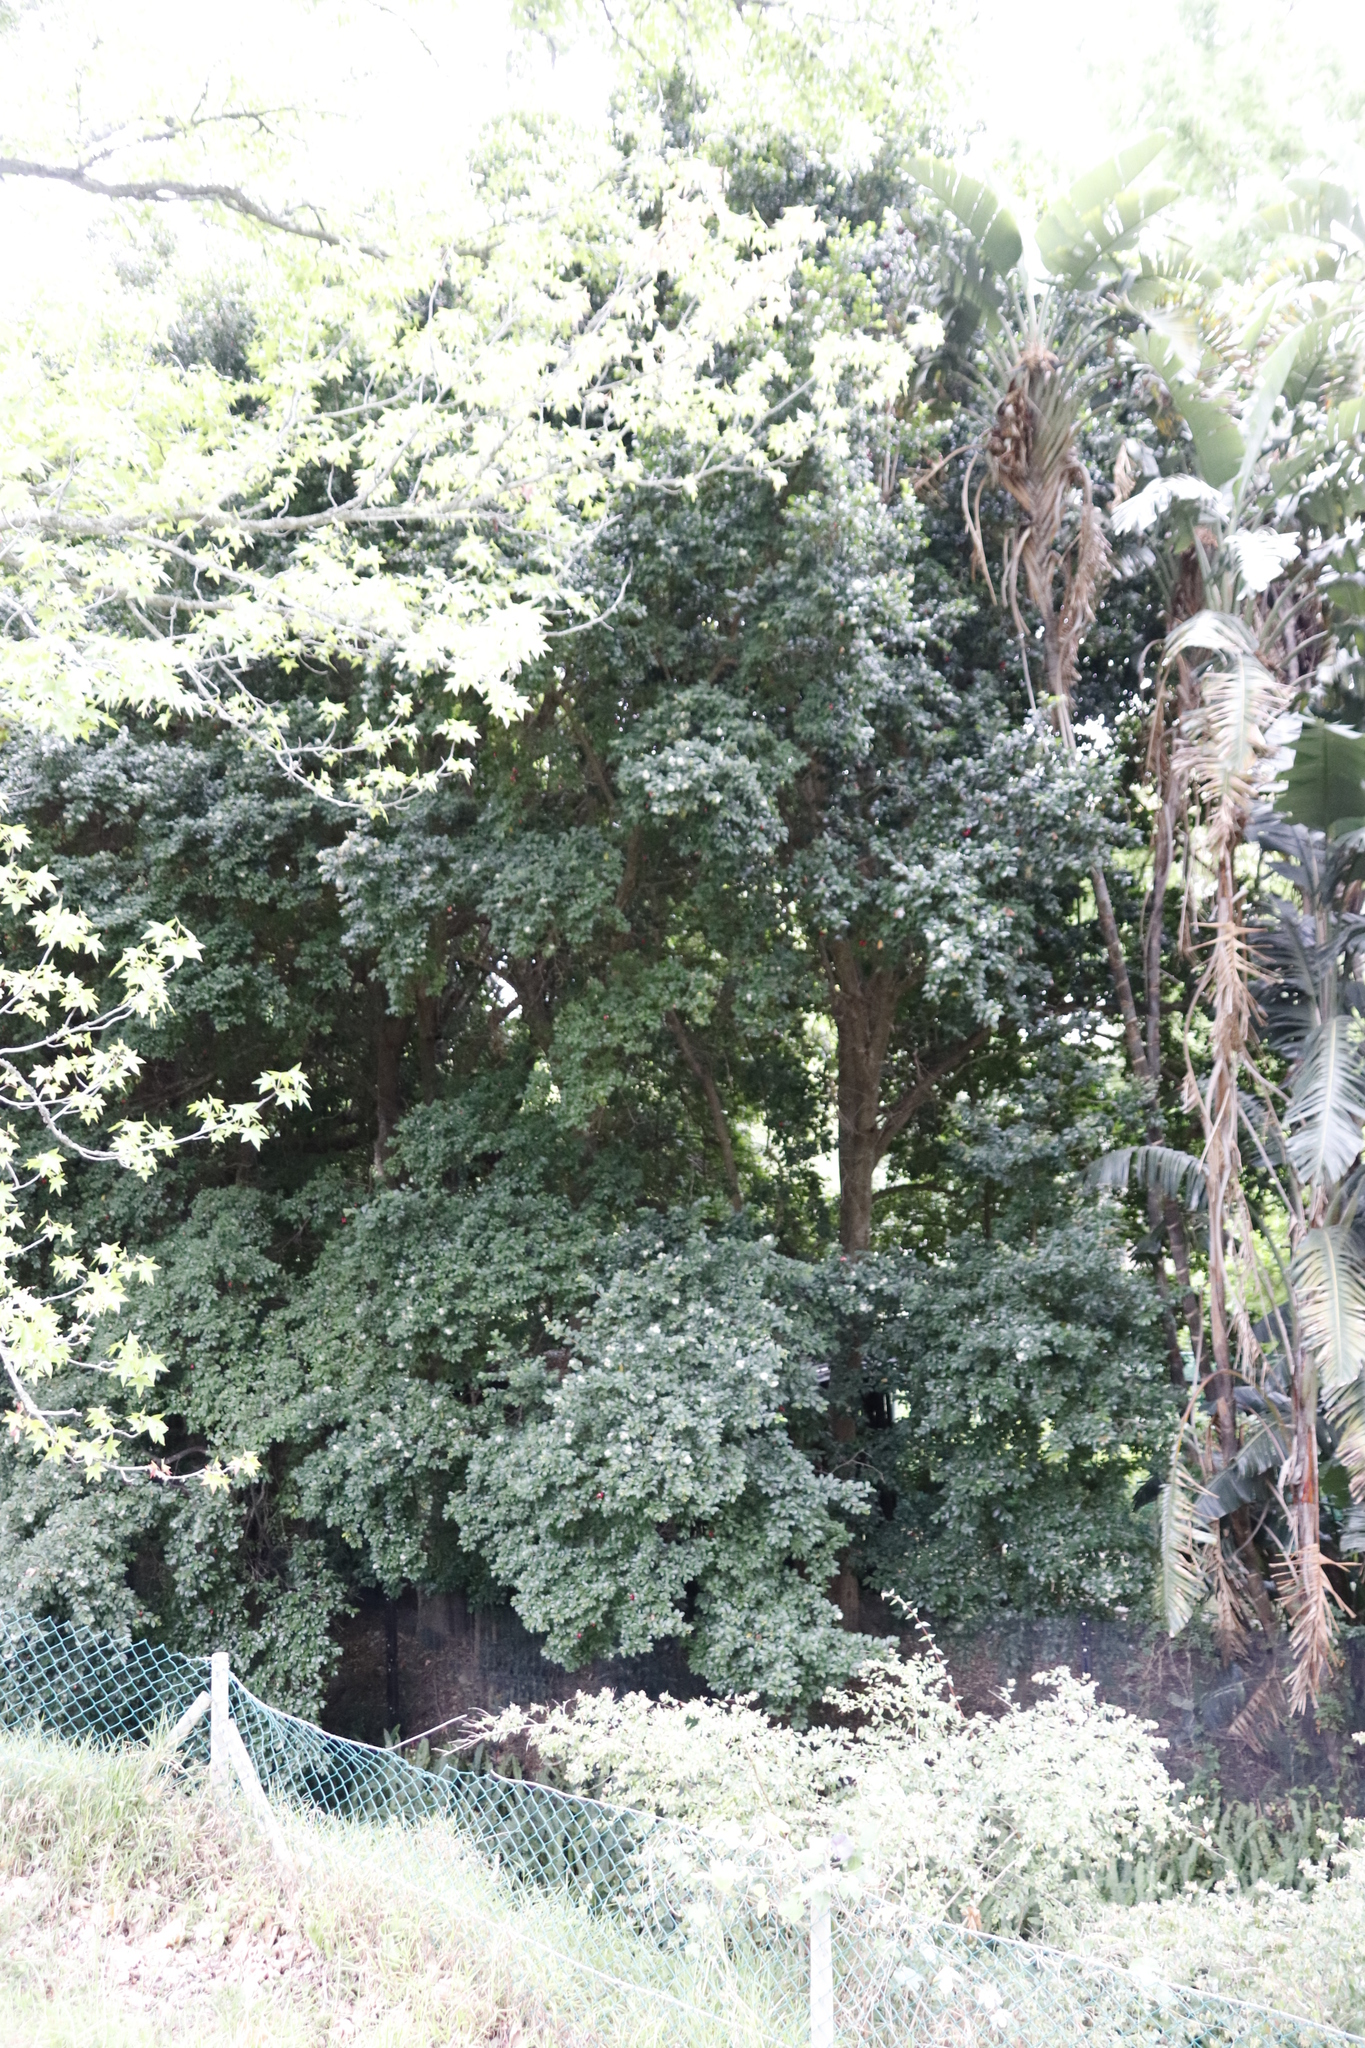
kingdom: Plantae
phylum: Tracheophyta
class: Magnoliopsida
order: Myrtales
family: Myrtaceae
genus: Syzygium
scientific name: Syzygium australe
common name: Australian brush-cherry
